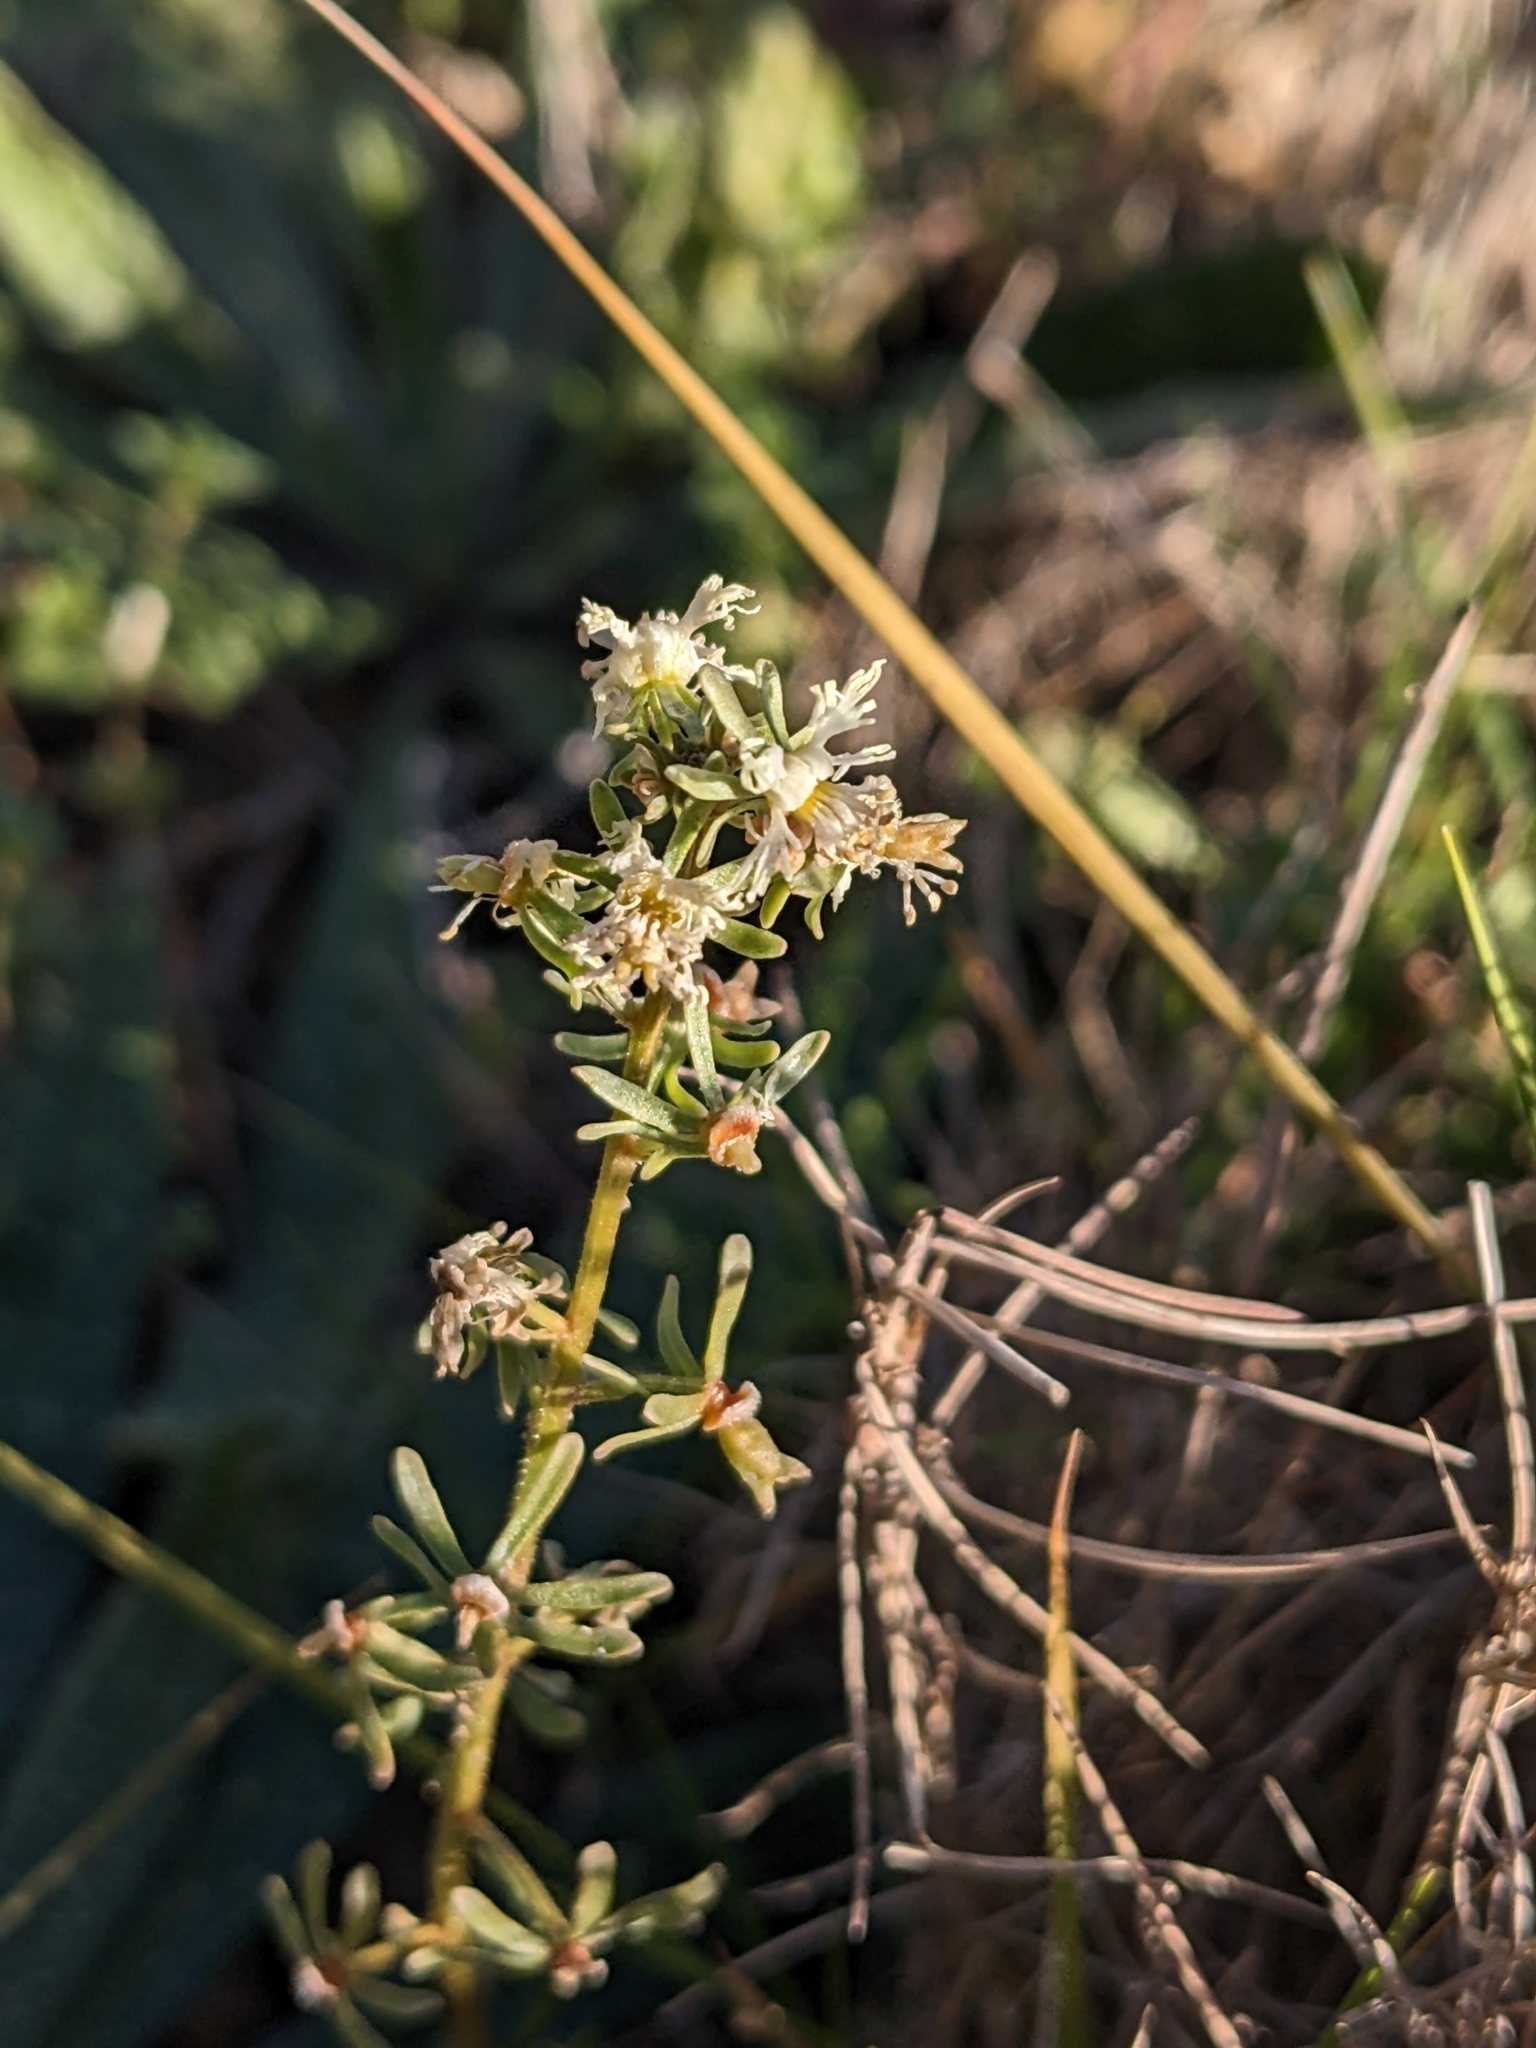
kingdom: Plantae
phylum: Tracheophyta
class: Magnoliopsida
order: Brassicales
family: Resedaceae
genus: Reseda
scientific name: Reseda phyteuma
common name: Corn mignonette
